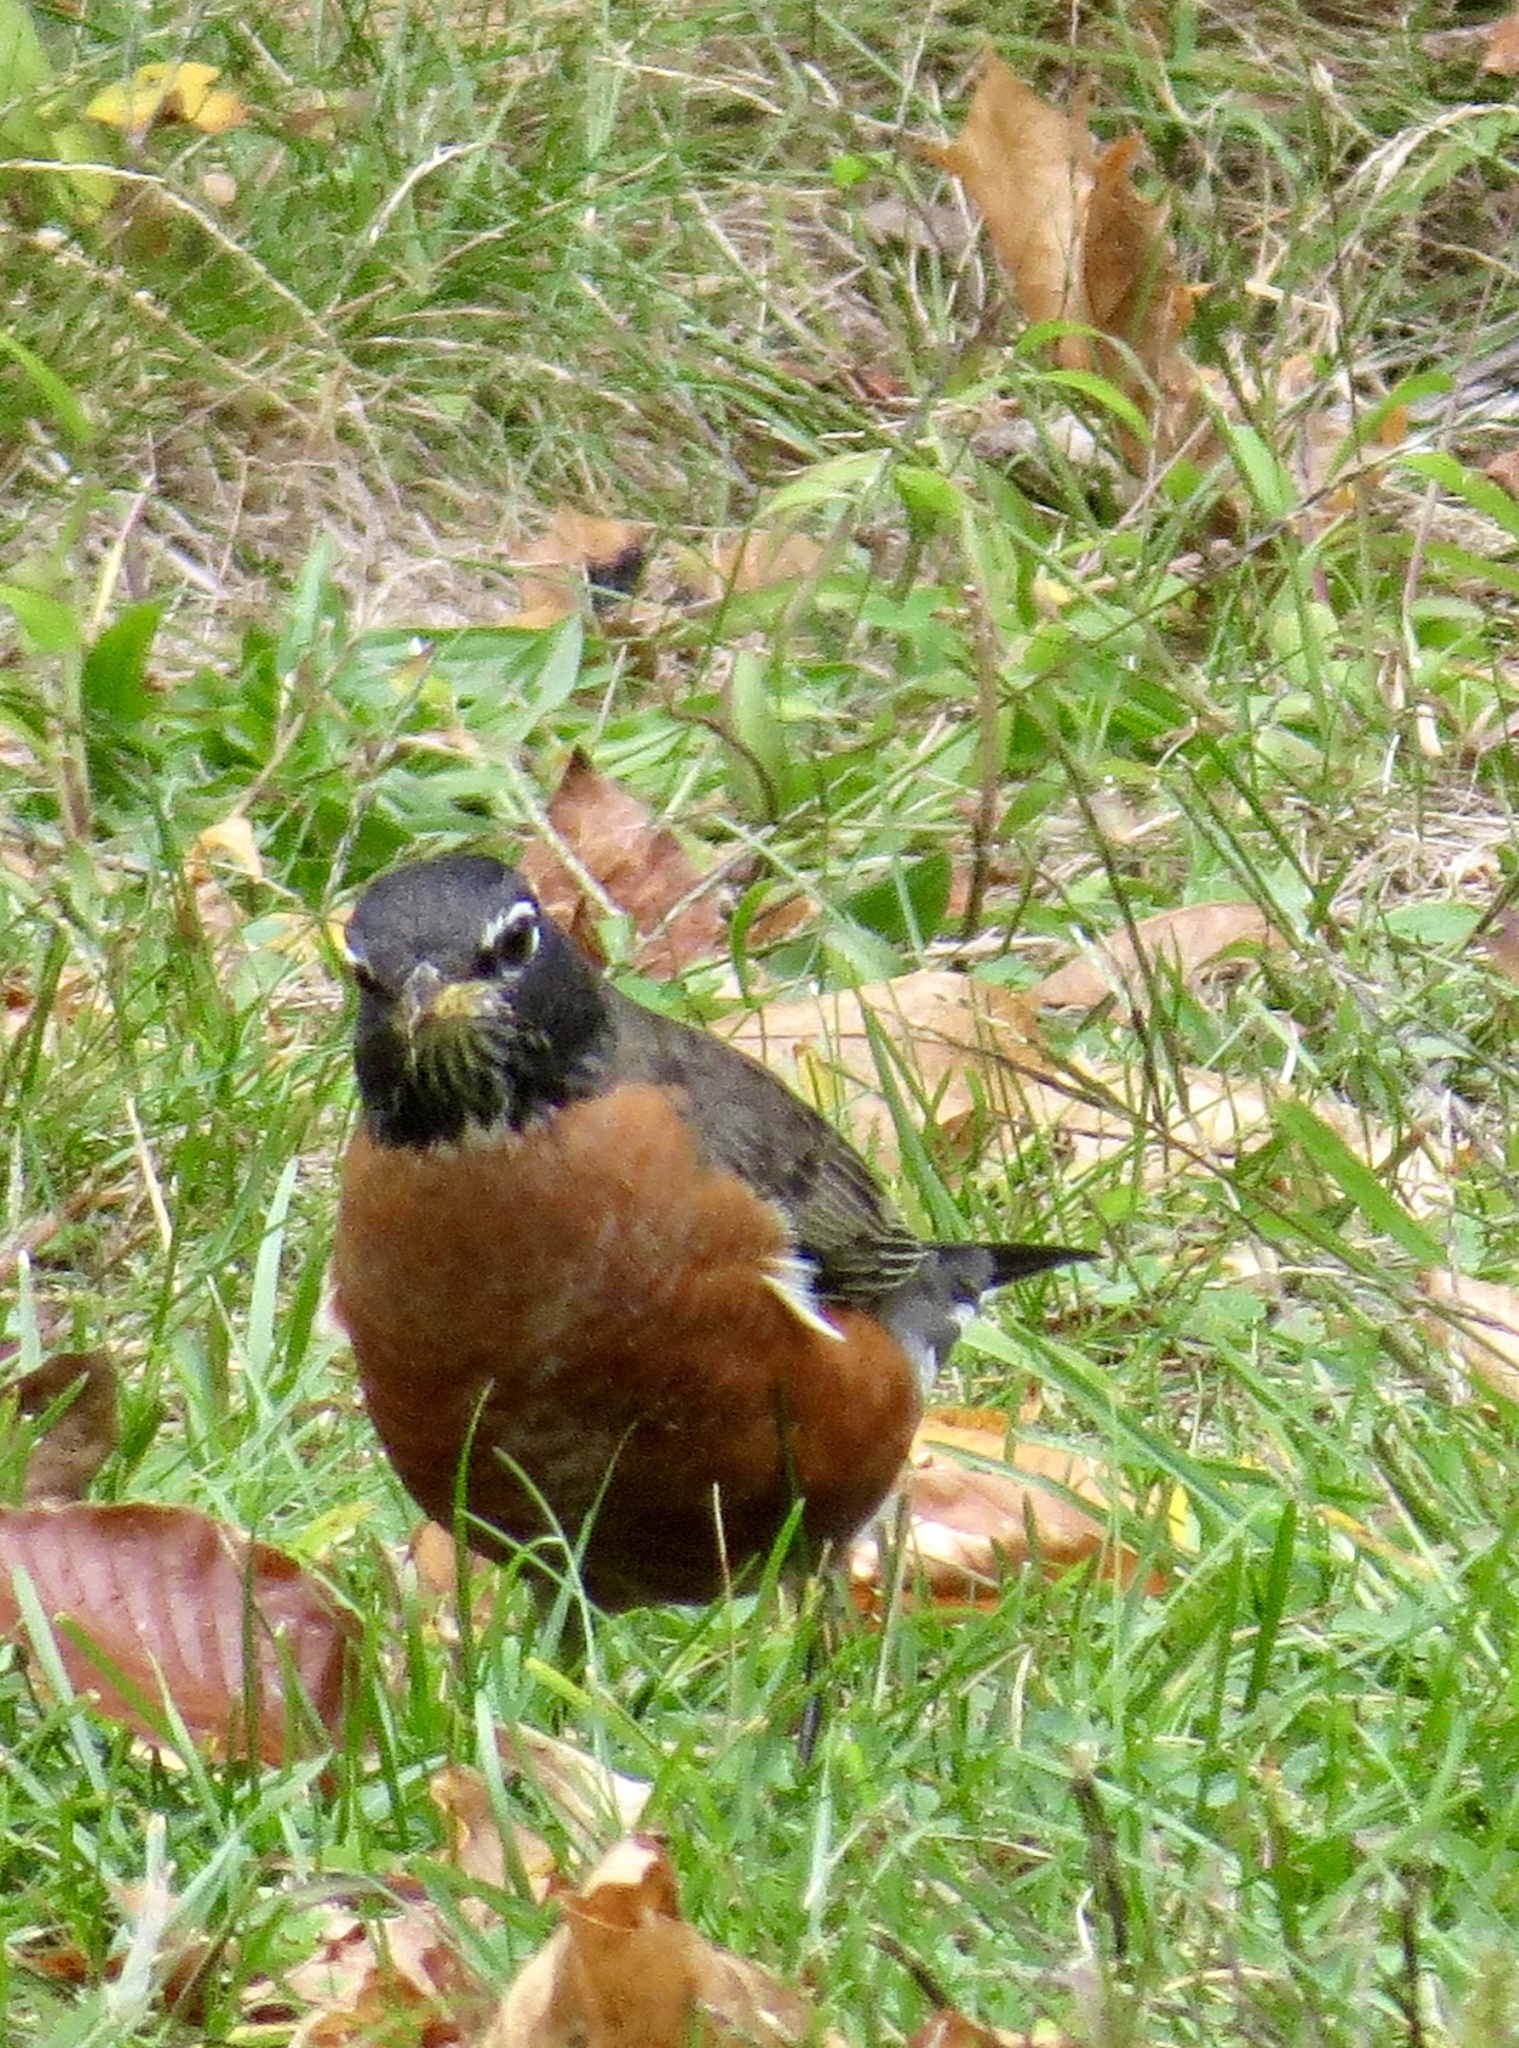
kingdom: Animalia
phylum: Chordata
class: Aves
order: Passeriformes
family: Turdidae
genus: Turdus
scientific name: Turdus migratorius
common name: American robin
